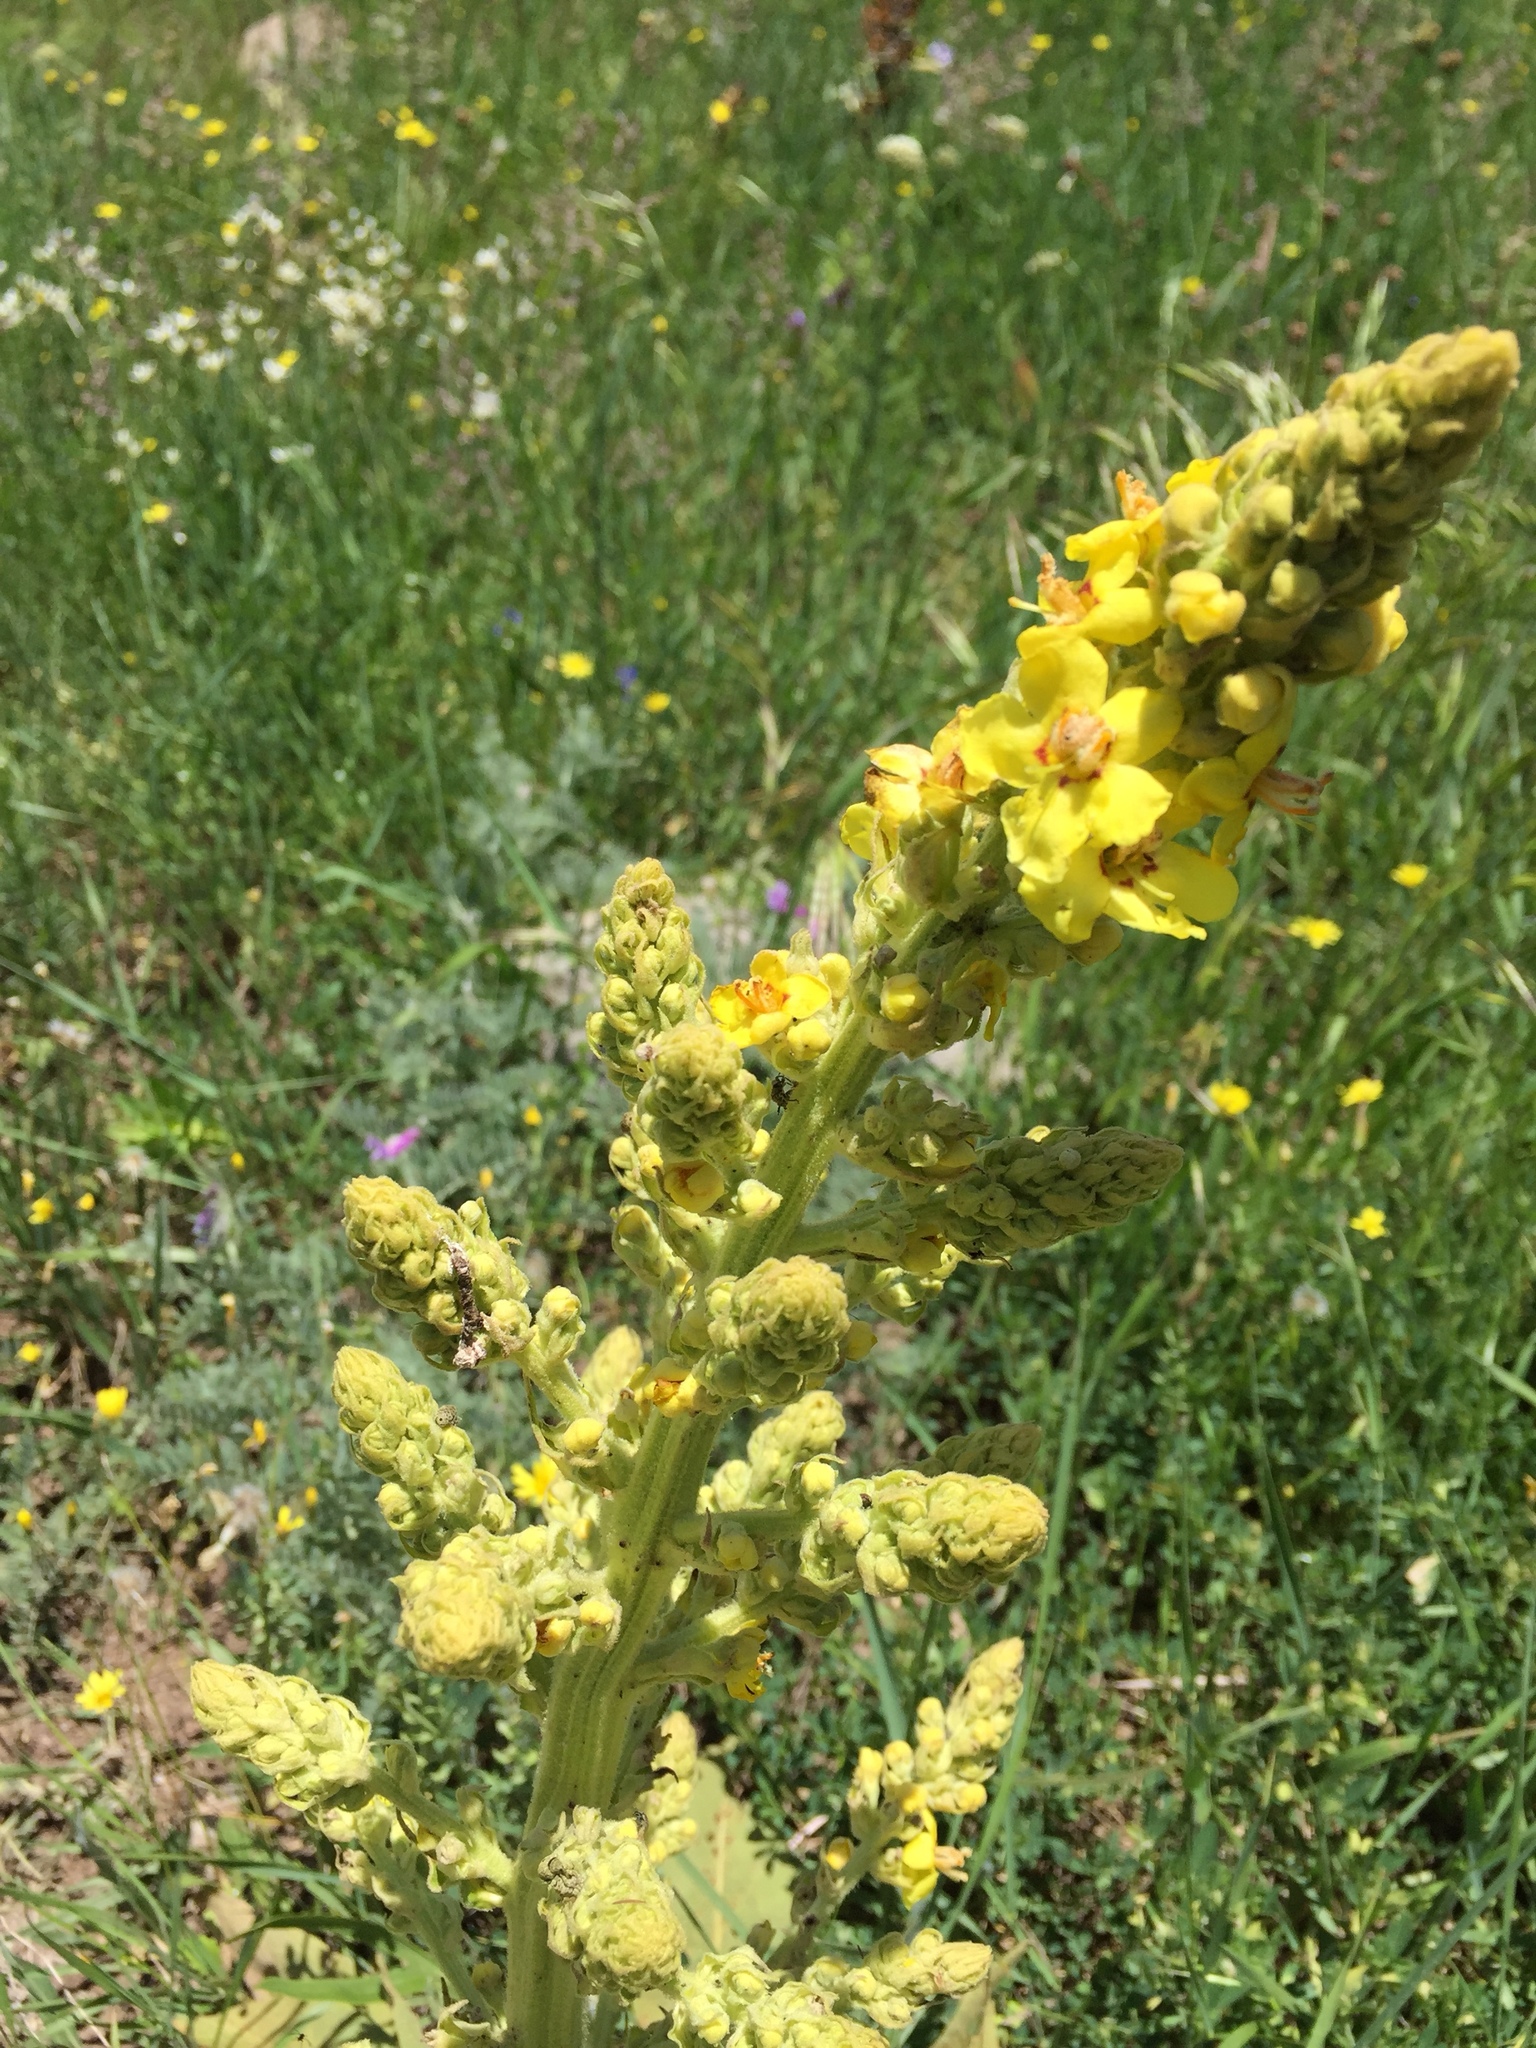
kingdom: Plantae
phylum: Tracheophyta
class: Magnoliopsida
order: Lamiales
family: Scrophulariaceae
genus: Verbascum
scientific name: Verbascum thapsus
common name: Common mullein
